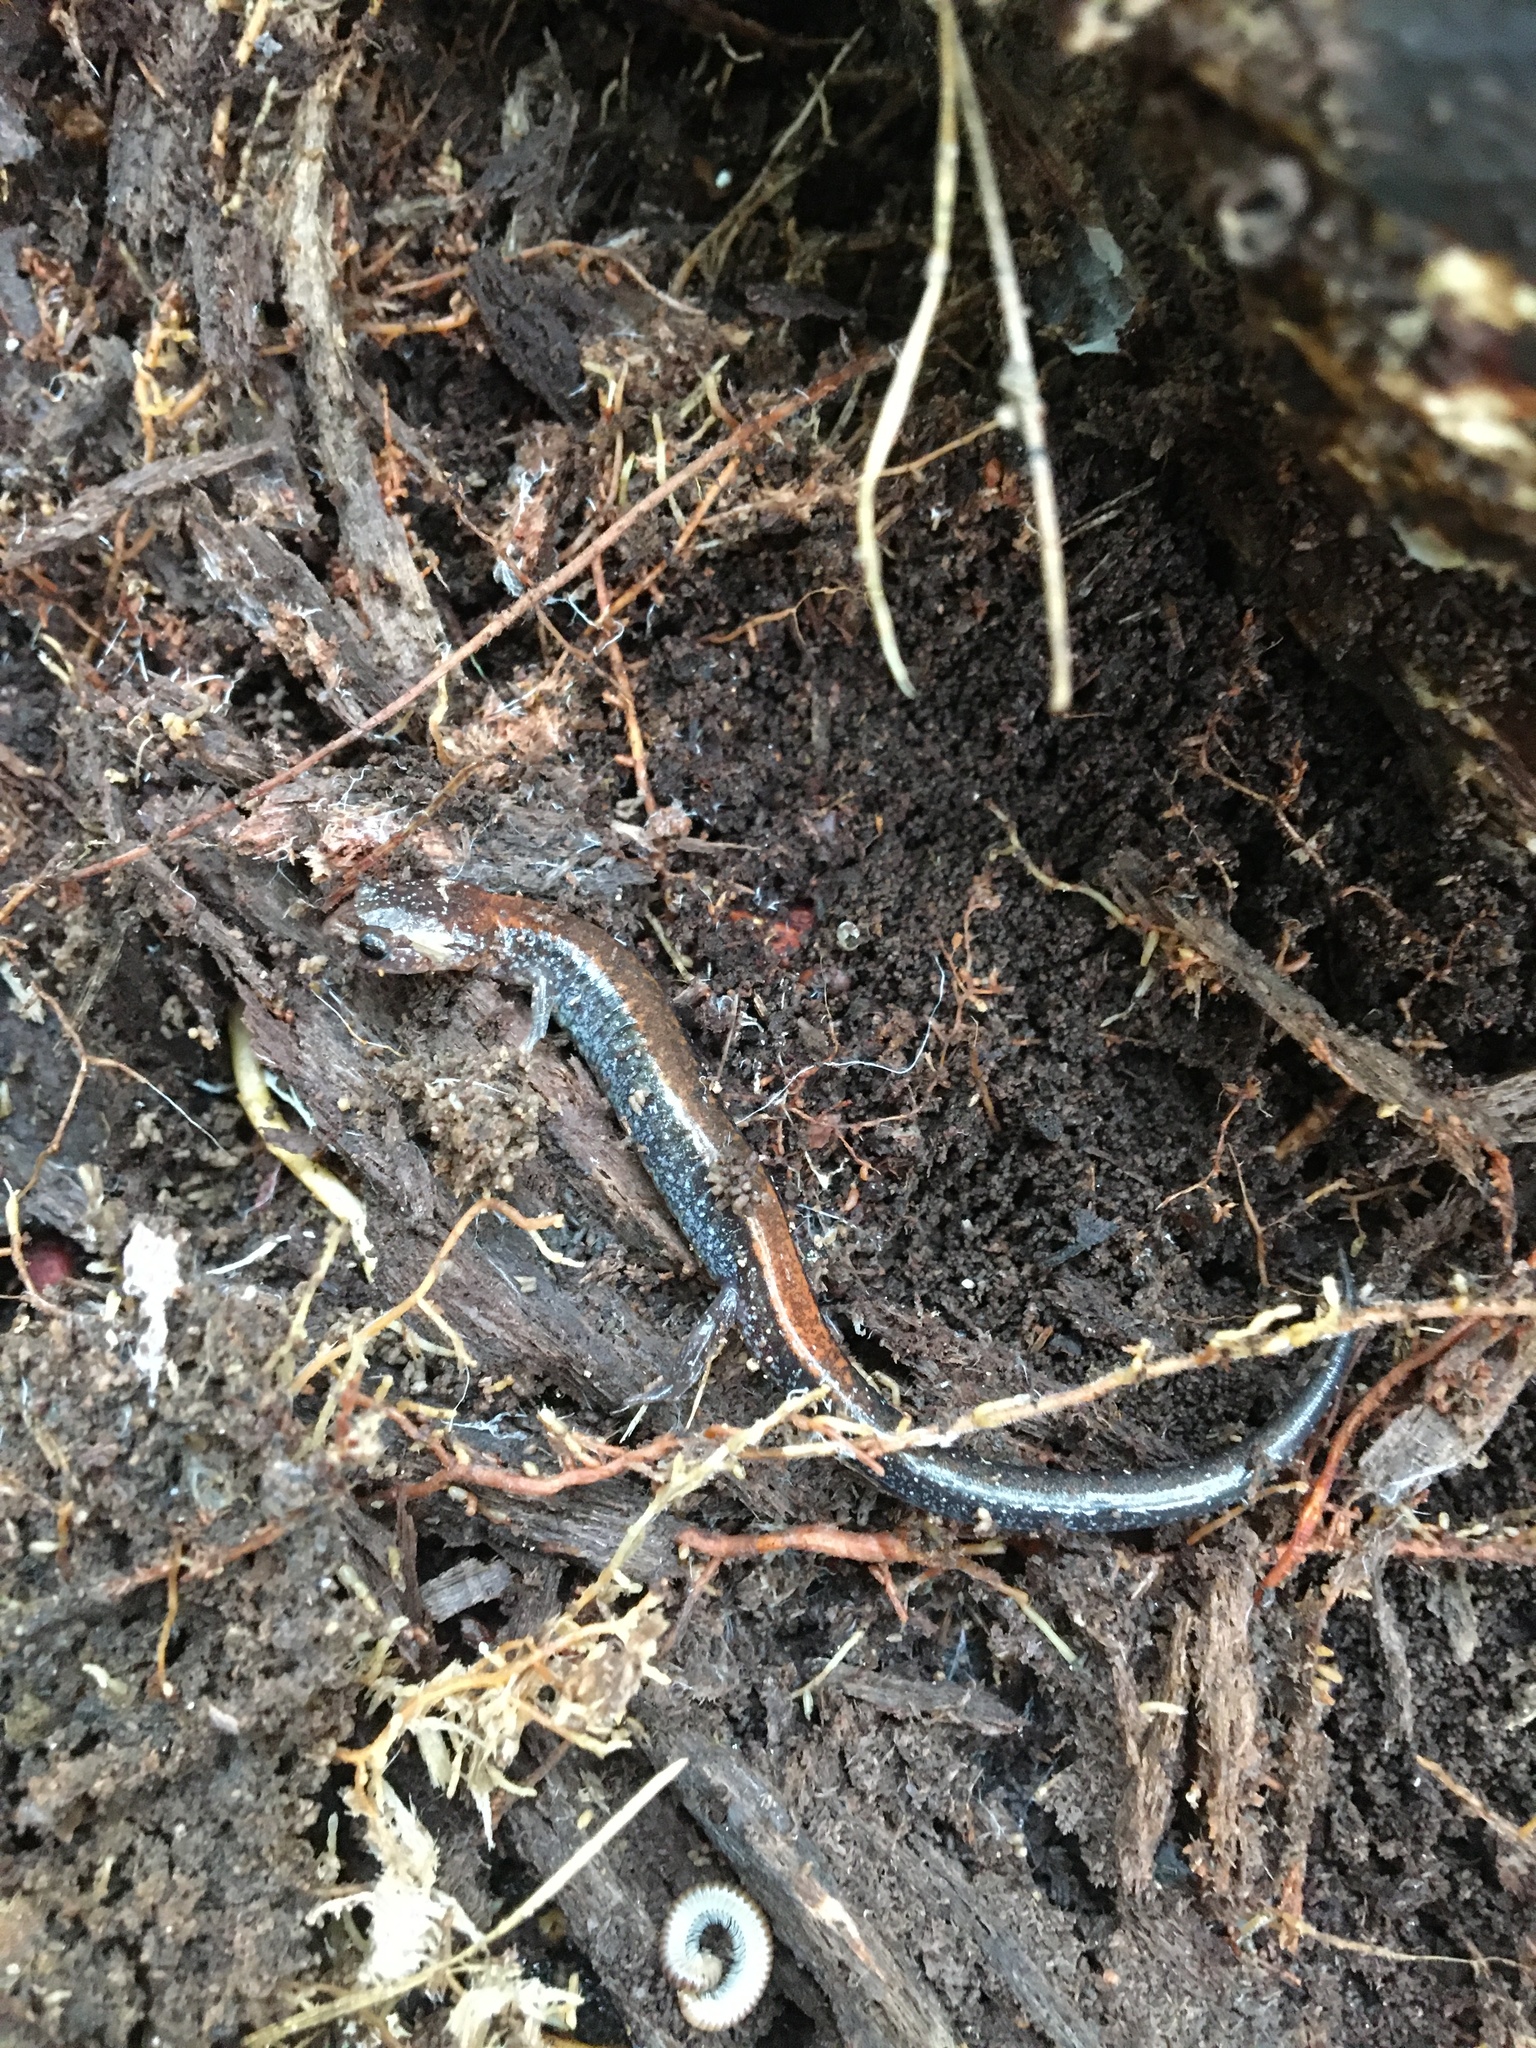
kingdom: Animalia
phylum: Chordata
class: Amphibia
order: Caudata
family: Plethodontidae
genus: Plethodon
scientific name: Plethodon cinereus
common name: Redback salamander
